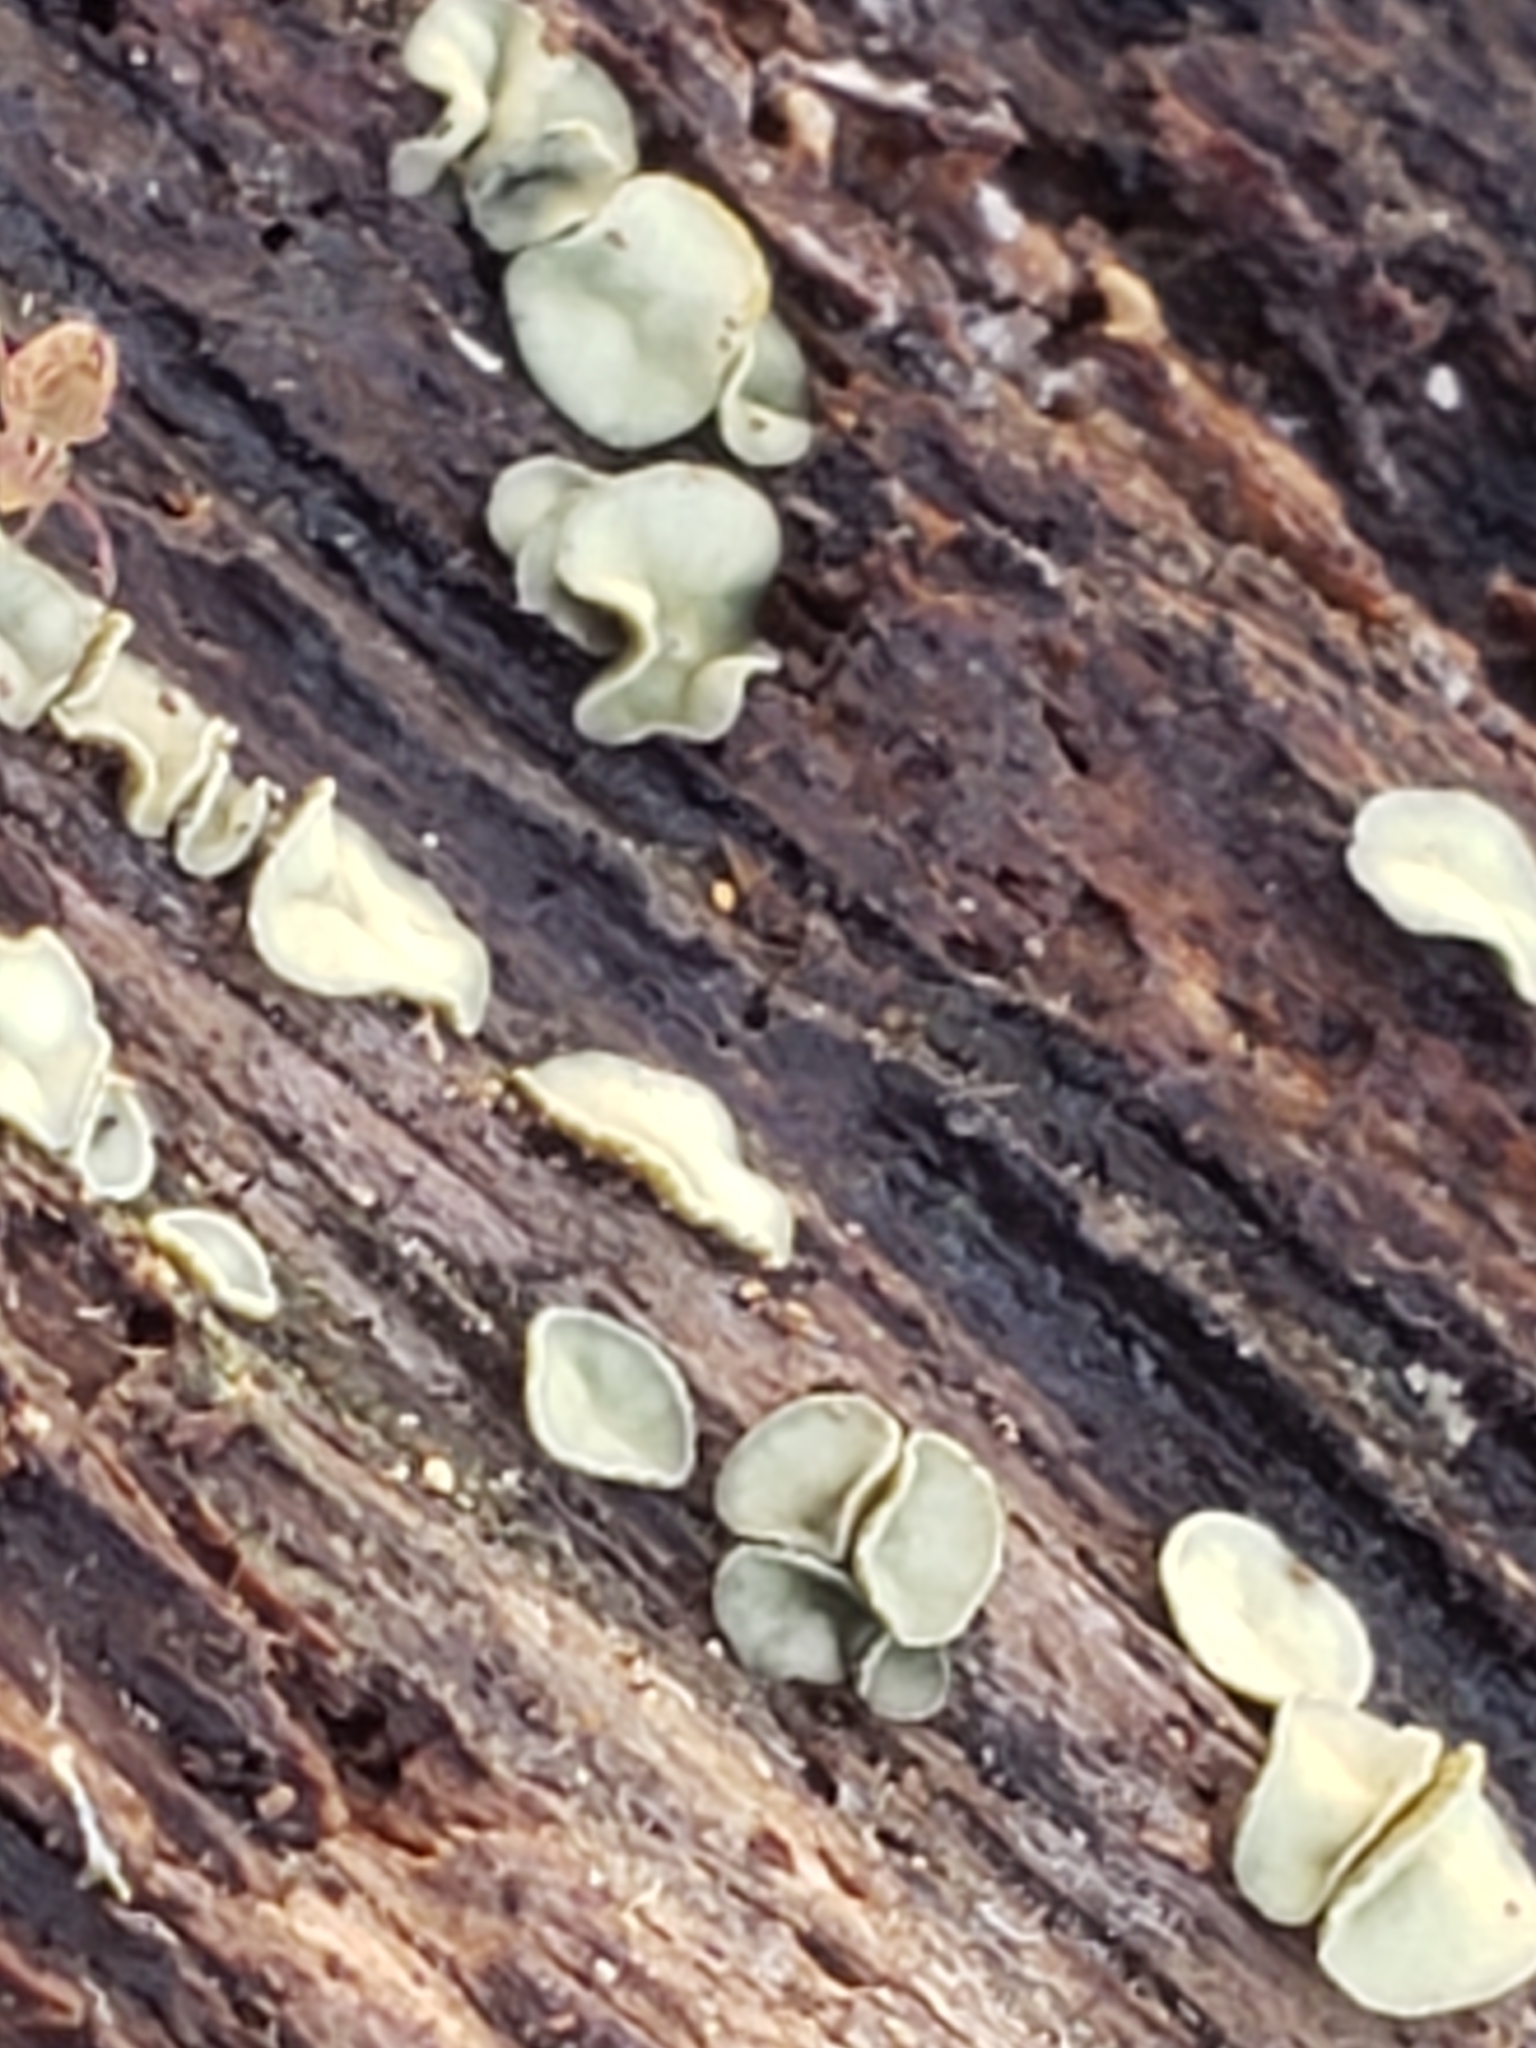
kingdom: Fungi
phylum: Ascomycota
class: Leotiomycetes
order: Helotiales
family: Chlorospleniaceae
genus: Chlorosplenium
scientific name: Chlorosplenium chlora
